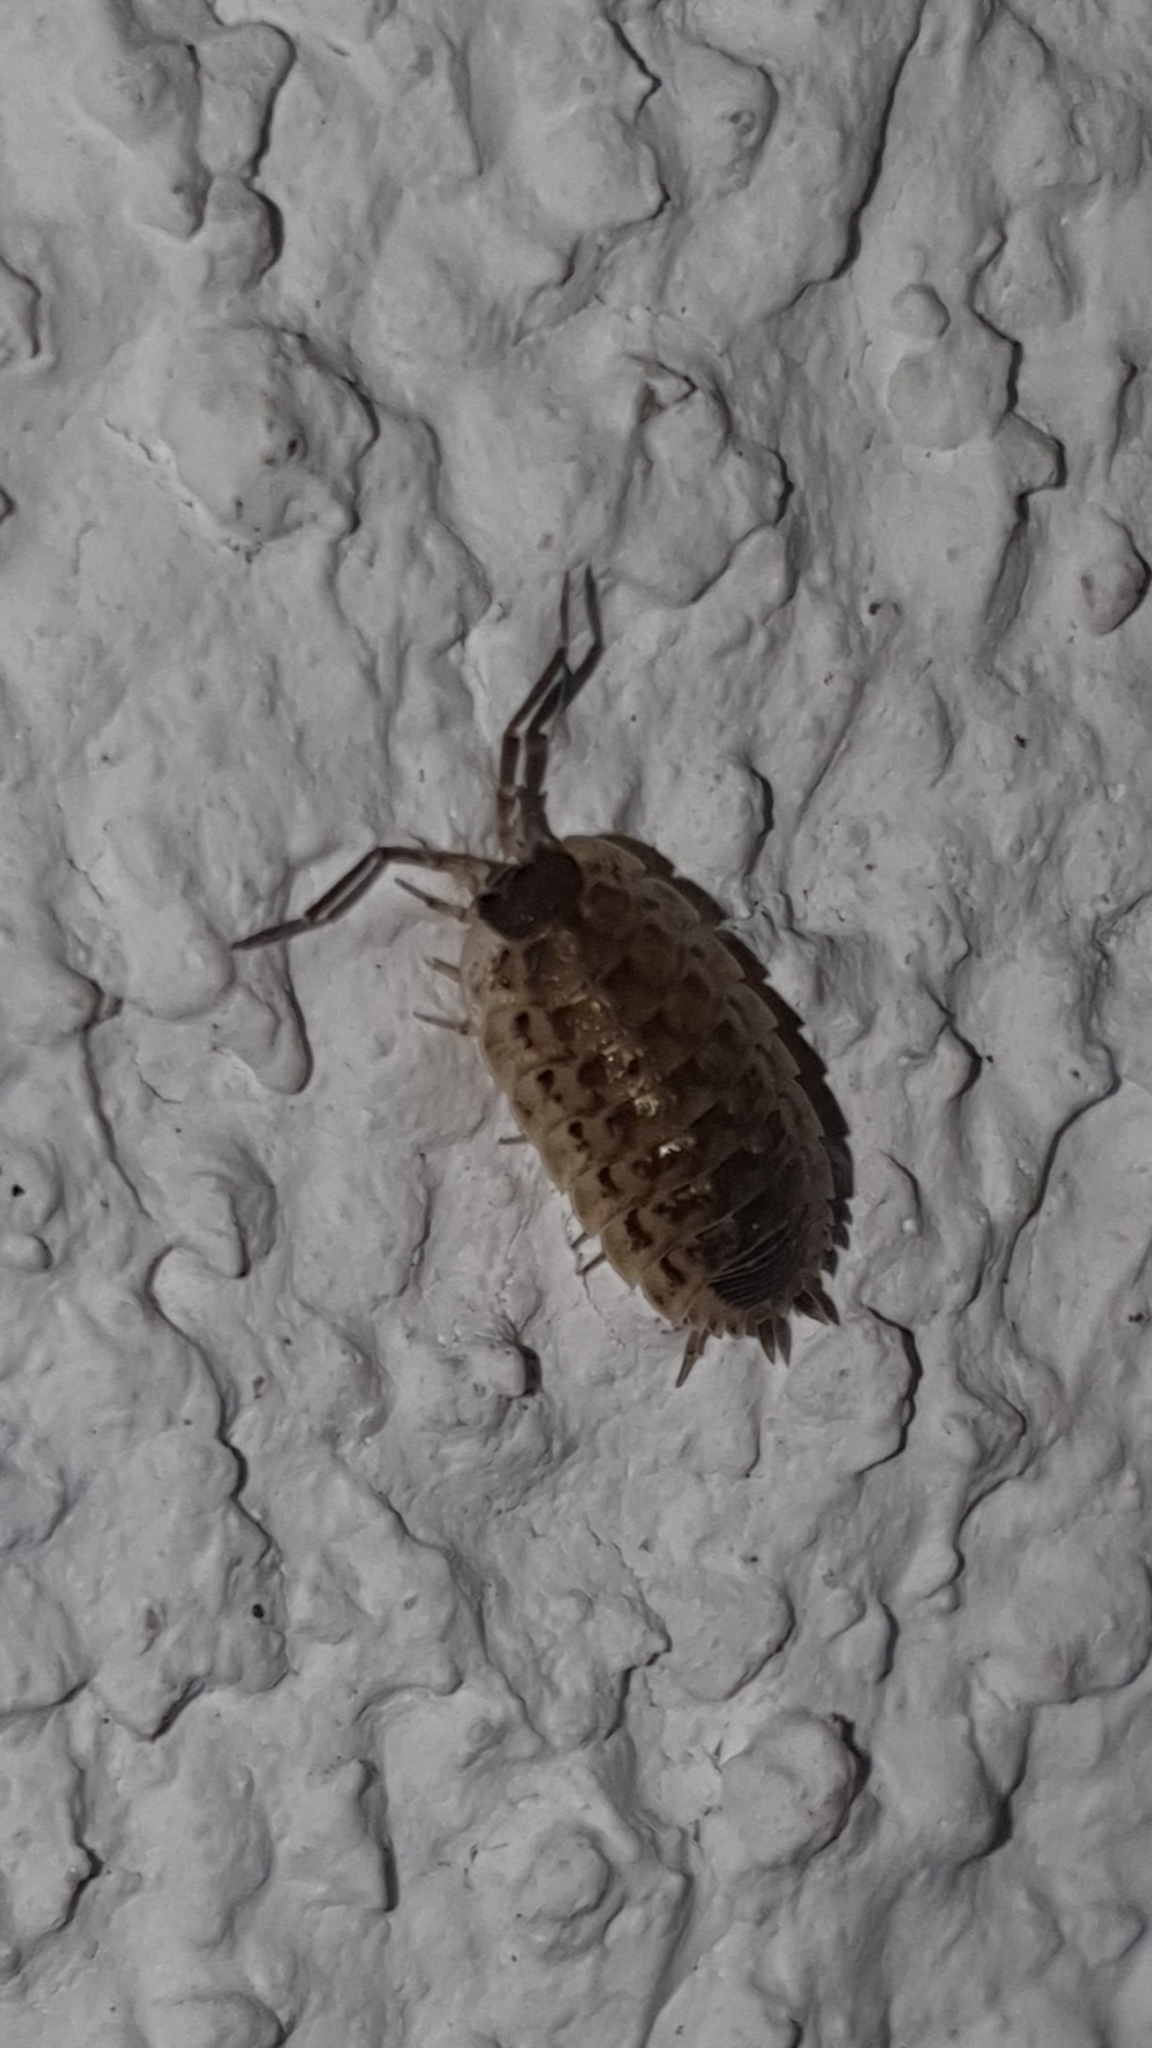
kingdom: Animalia
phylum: Arthropoda
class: Malacostraca
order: Isopoda
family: Porcellionidae
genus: Porcellio
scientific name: Porcellio spinicornis
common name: Painted woodlouse
